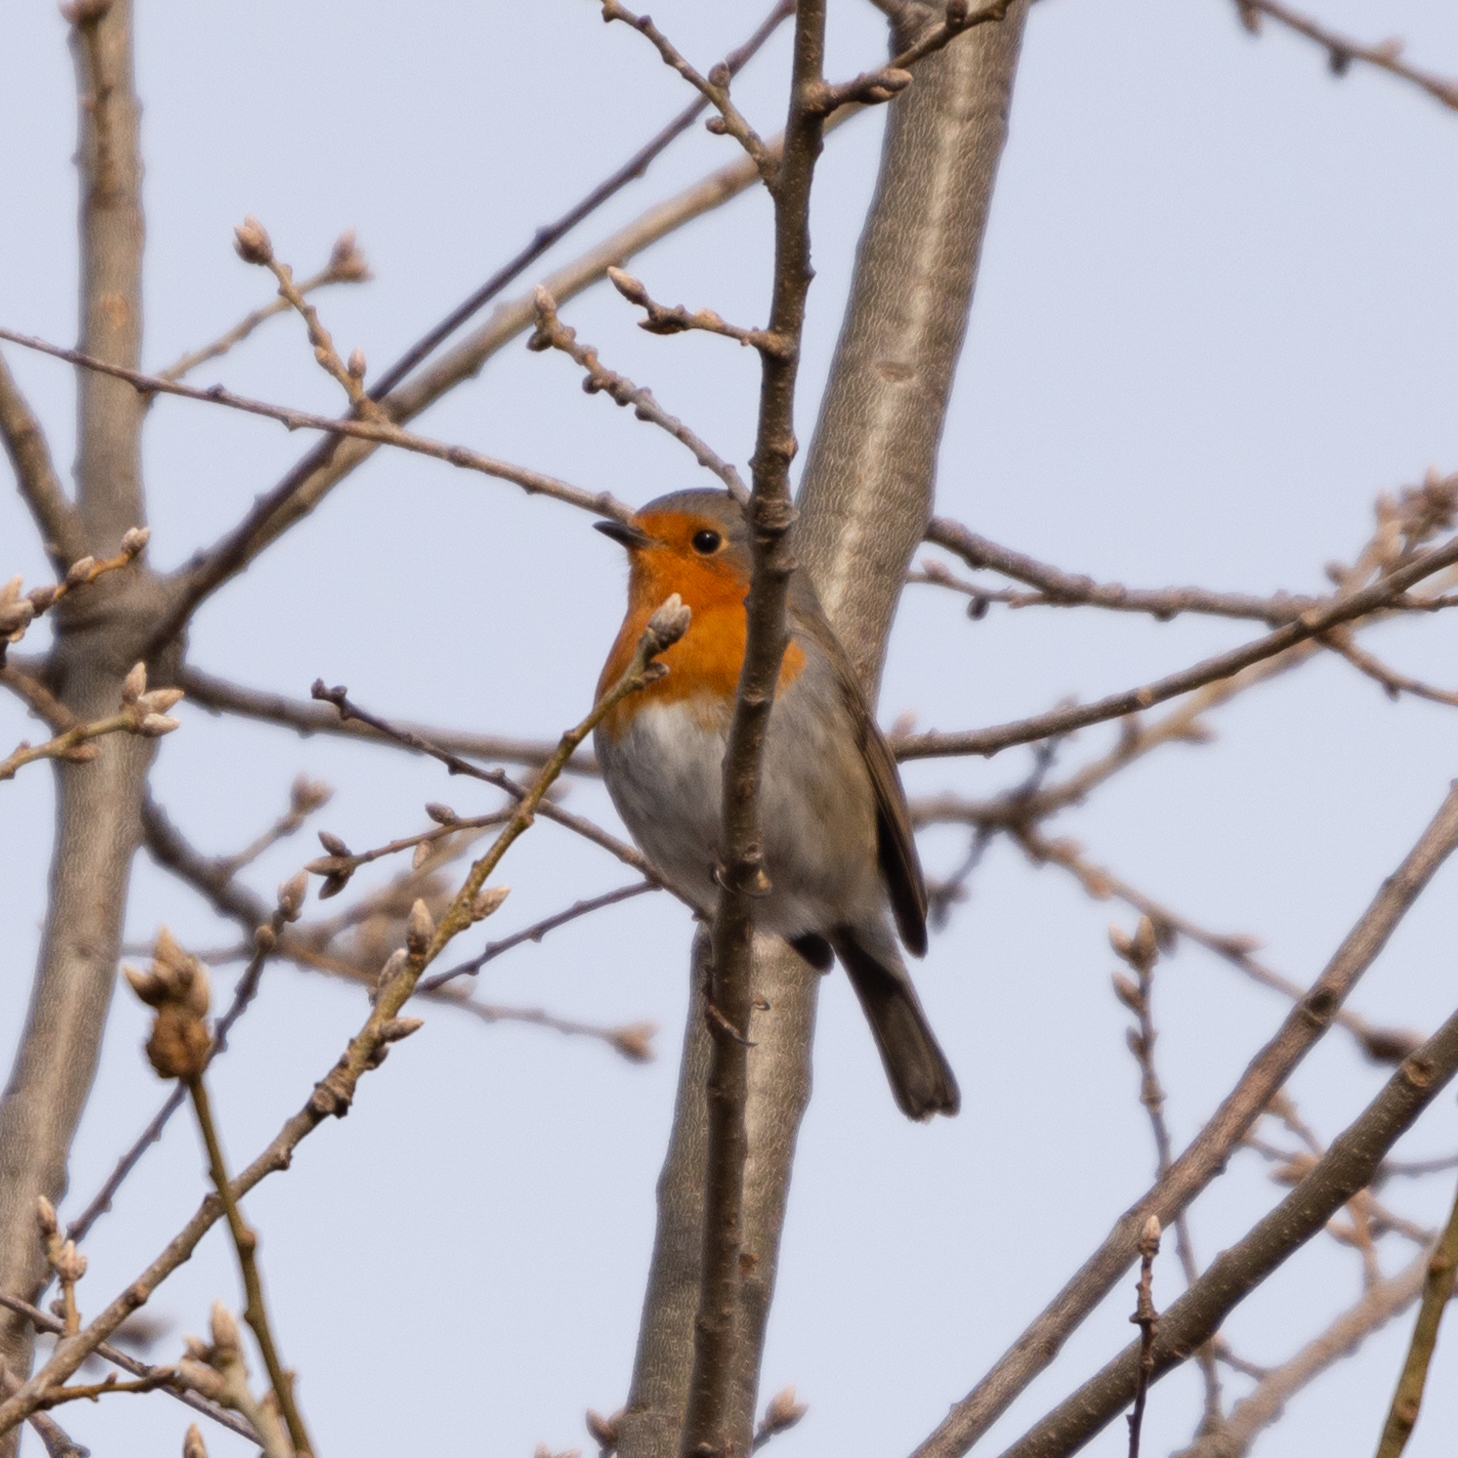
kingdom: Animalia
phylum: Chordata
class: Aves
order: Passeriformes
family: Muscicapidae
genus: Erithacus
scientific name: Erithacus rubecula
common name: European robin
